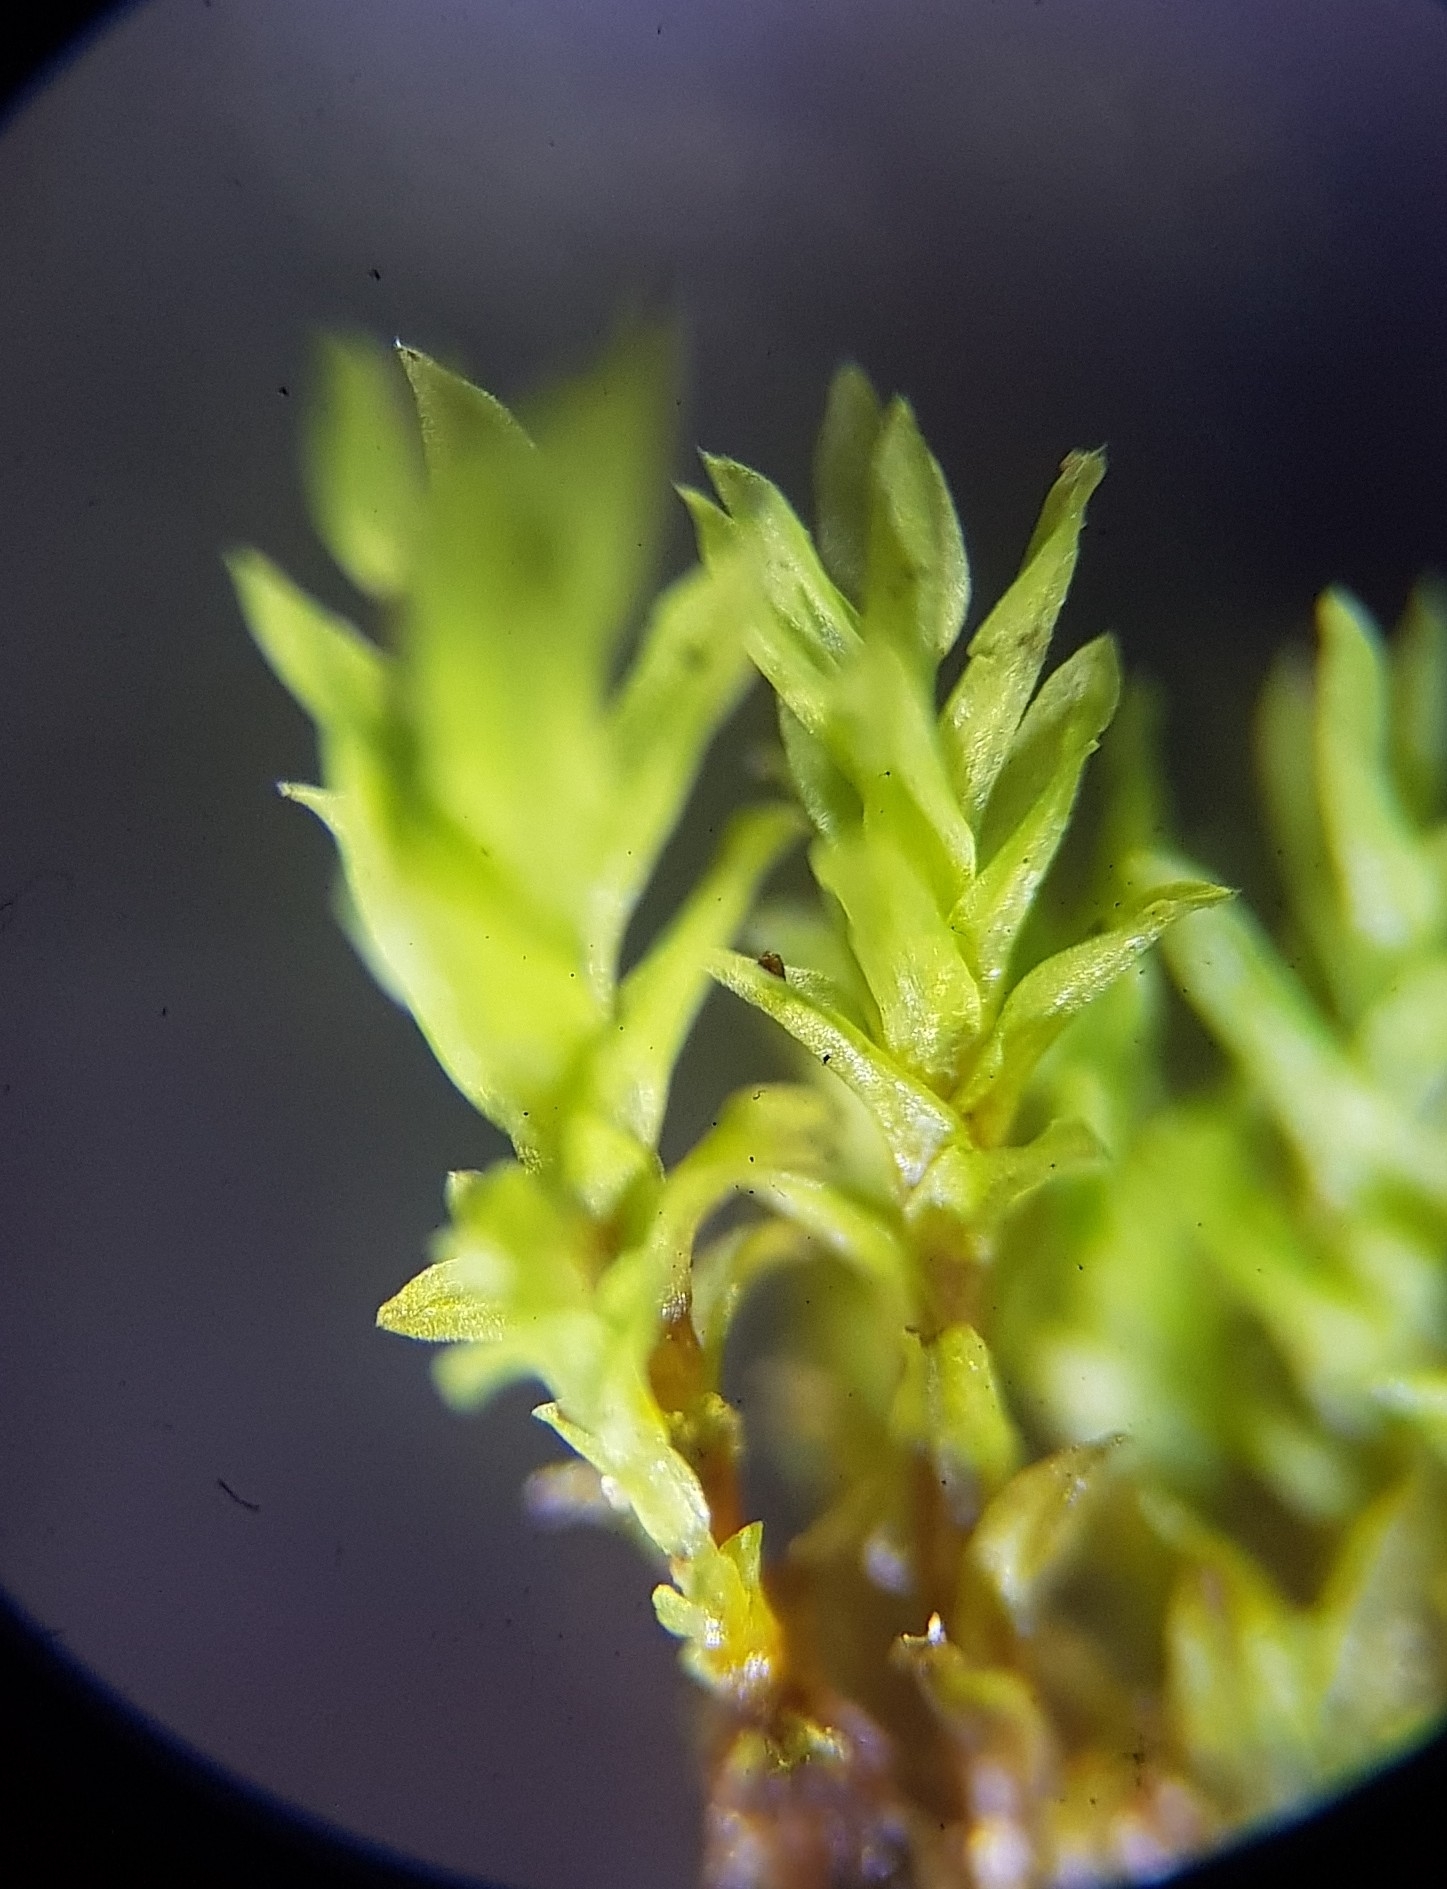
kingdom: Plantae
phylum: Bryophyta
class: Bryopsida
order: Pottiales
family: Pottiaceae
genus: Streblotrichum
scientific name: Streblotrichum convolutum
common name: Lesser bird's-claw beard-moss
